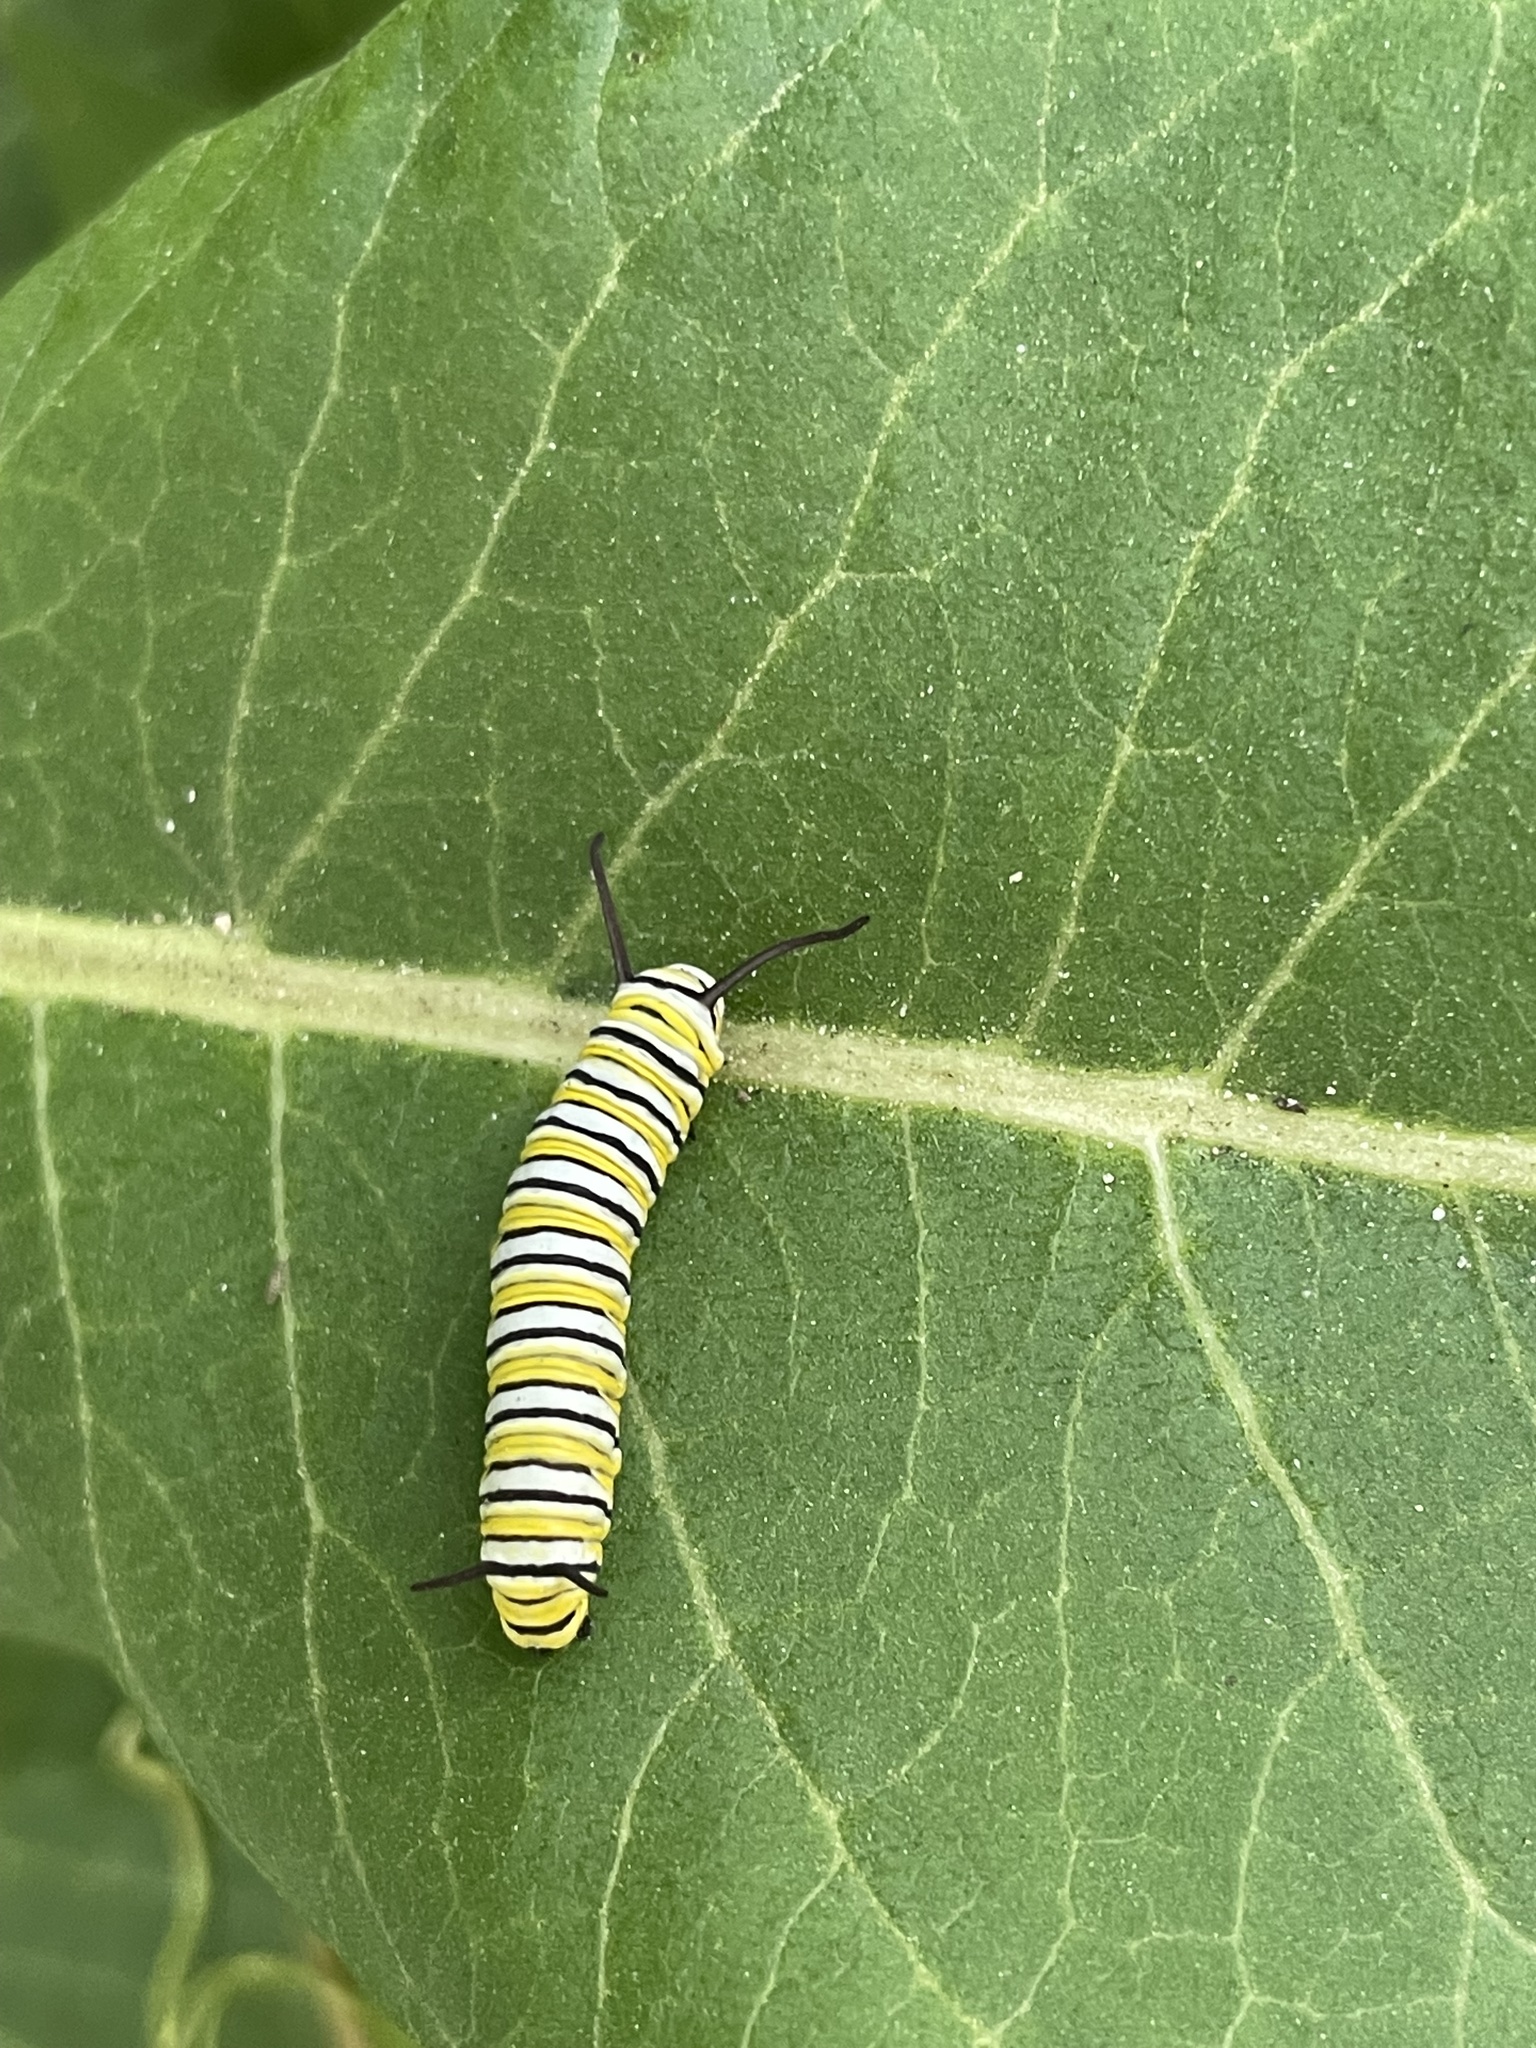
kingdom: Animalia
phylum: Arthropoda
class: Insecta
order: Lepidoptera
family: Nymphalidae
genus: Danaus
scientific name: Danaus plexippus
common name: Monarch
